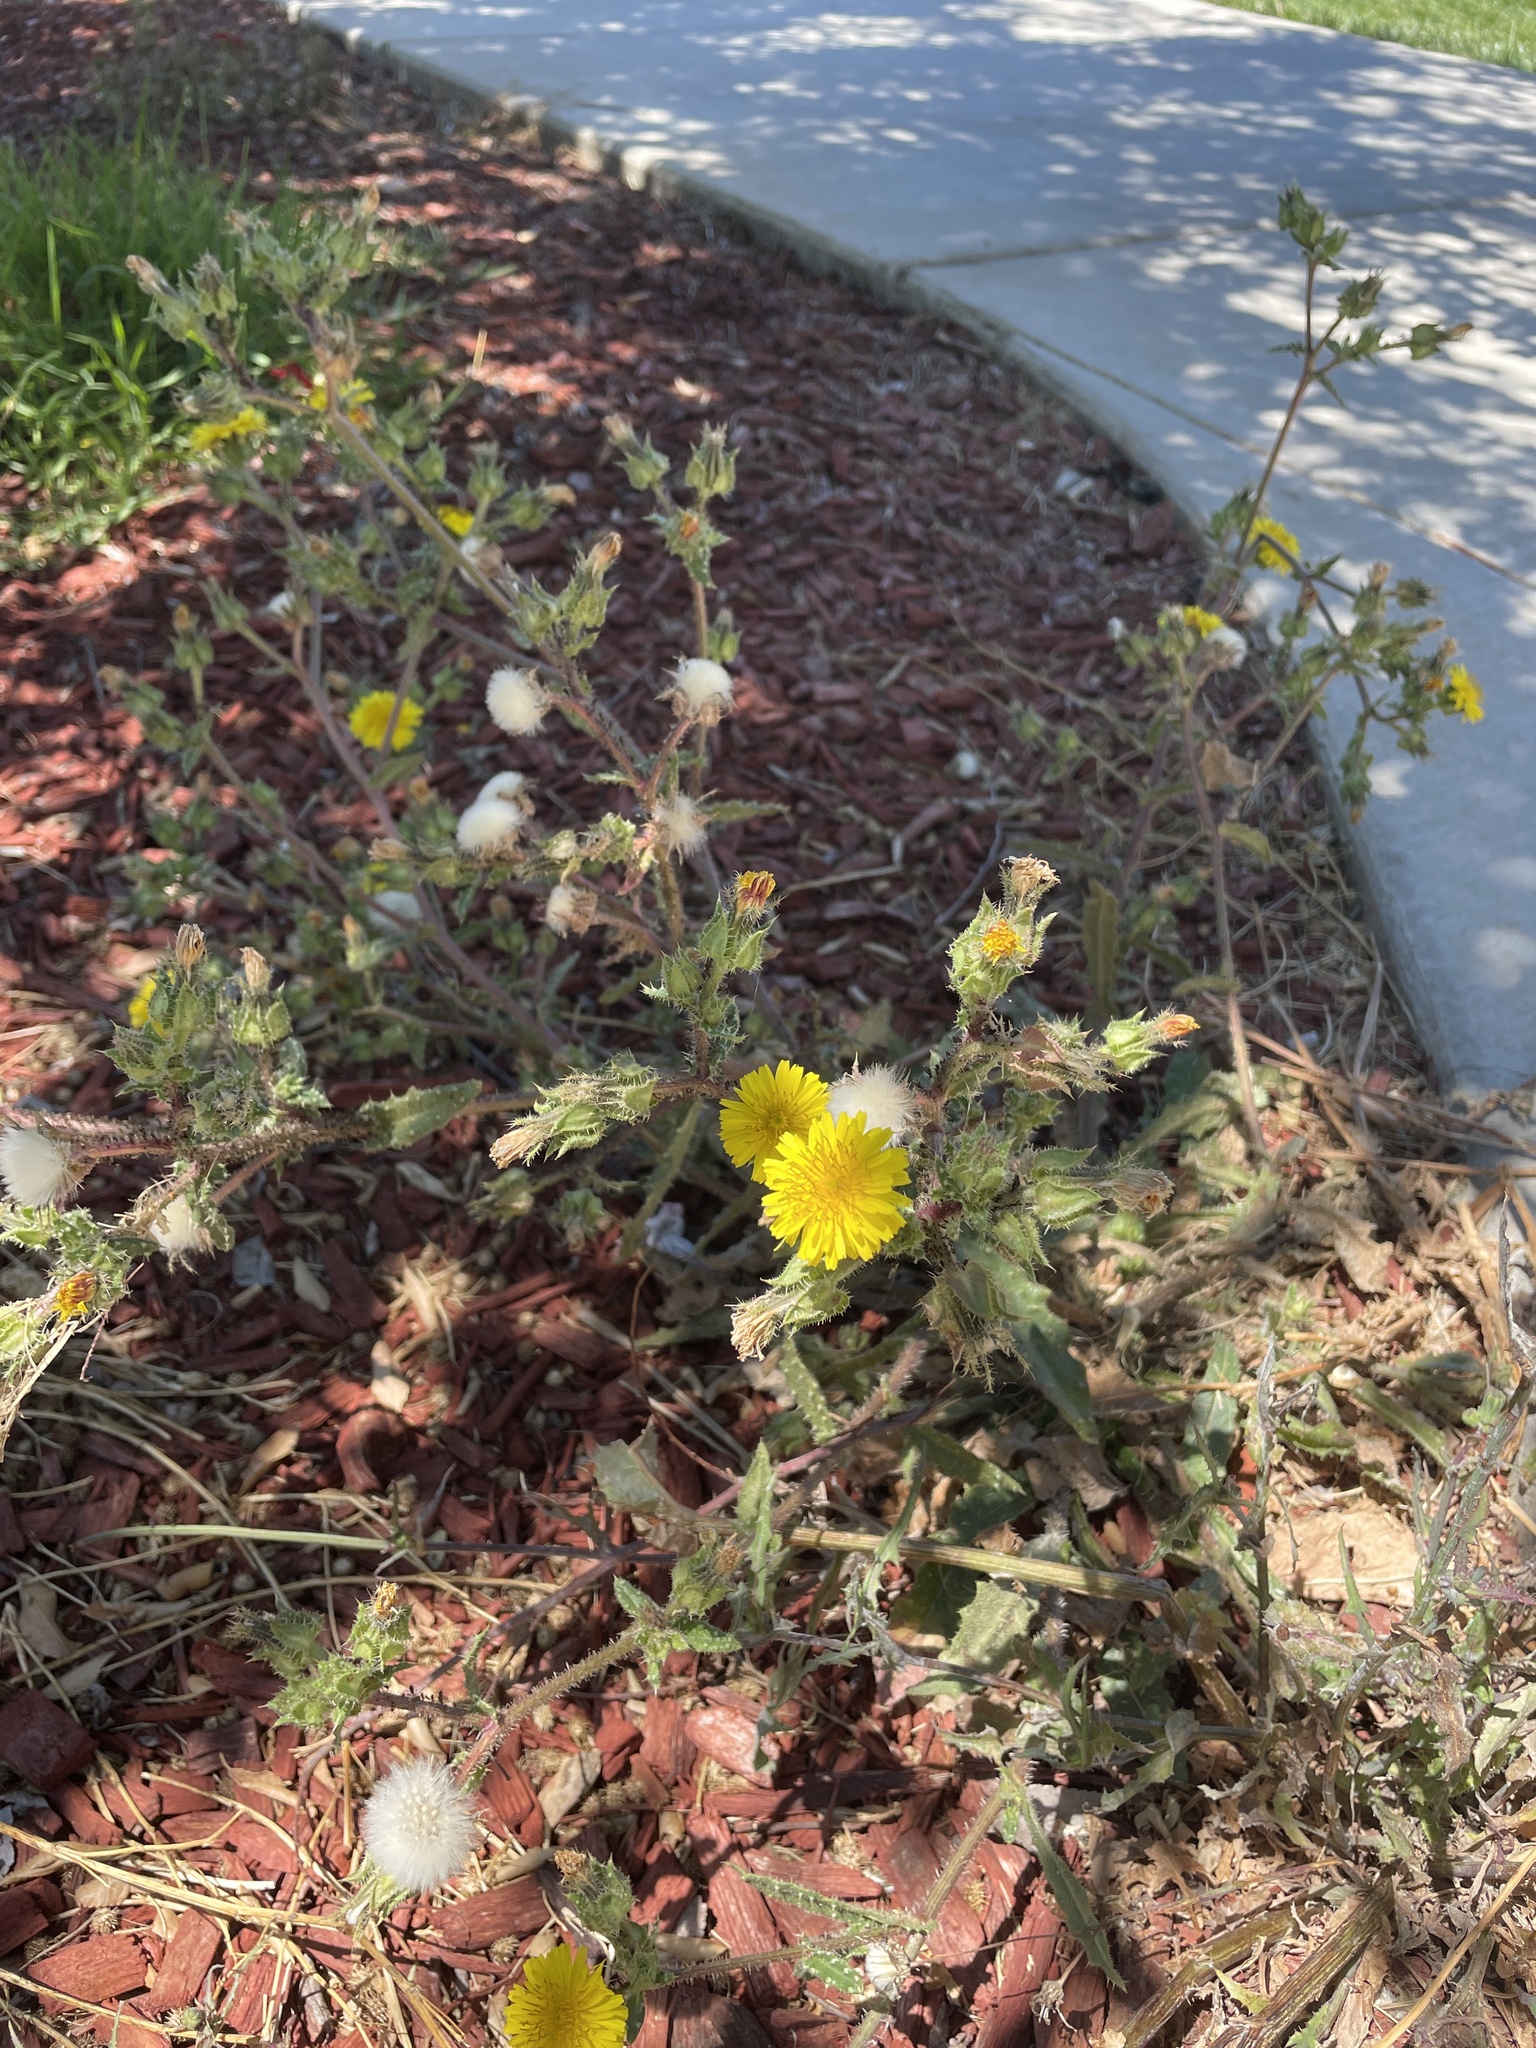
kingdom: Plantae
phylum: Tracheophyta
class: Magnoliopsida
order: Asterales
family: Asteraceae
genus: Helminthotheca
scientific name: Helminthotheca echioides
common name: Ox-tongue
